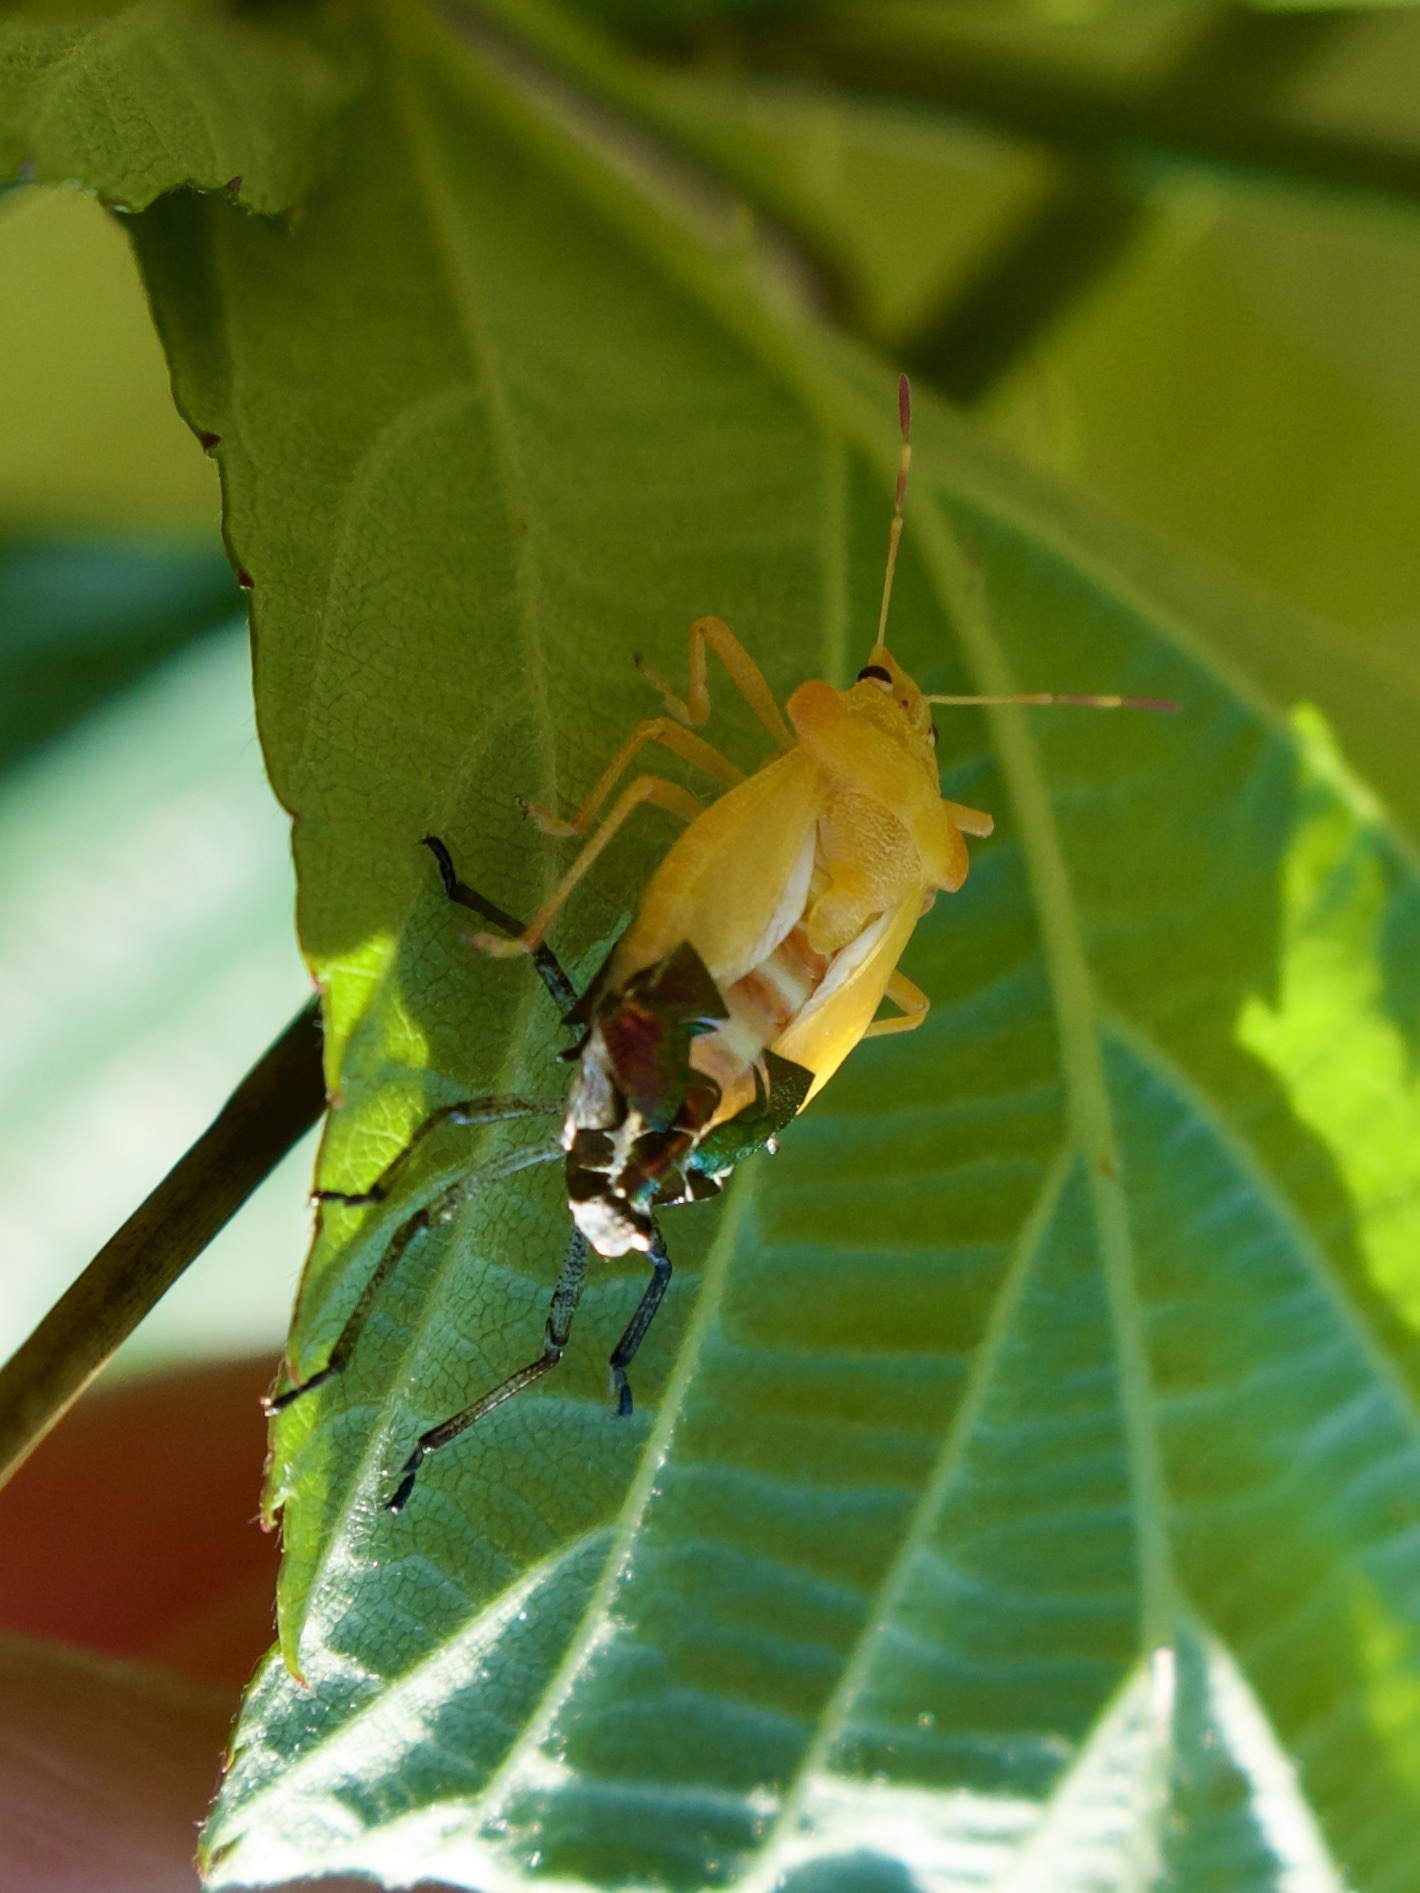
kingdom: Animalia
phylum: Arthropoda
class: Insecta
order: Hemiptera
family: Pentatomidae
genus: Troilus
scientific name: Troilus luridus
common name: Bronze shieldbug
